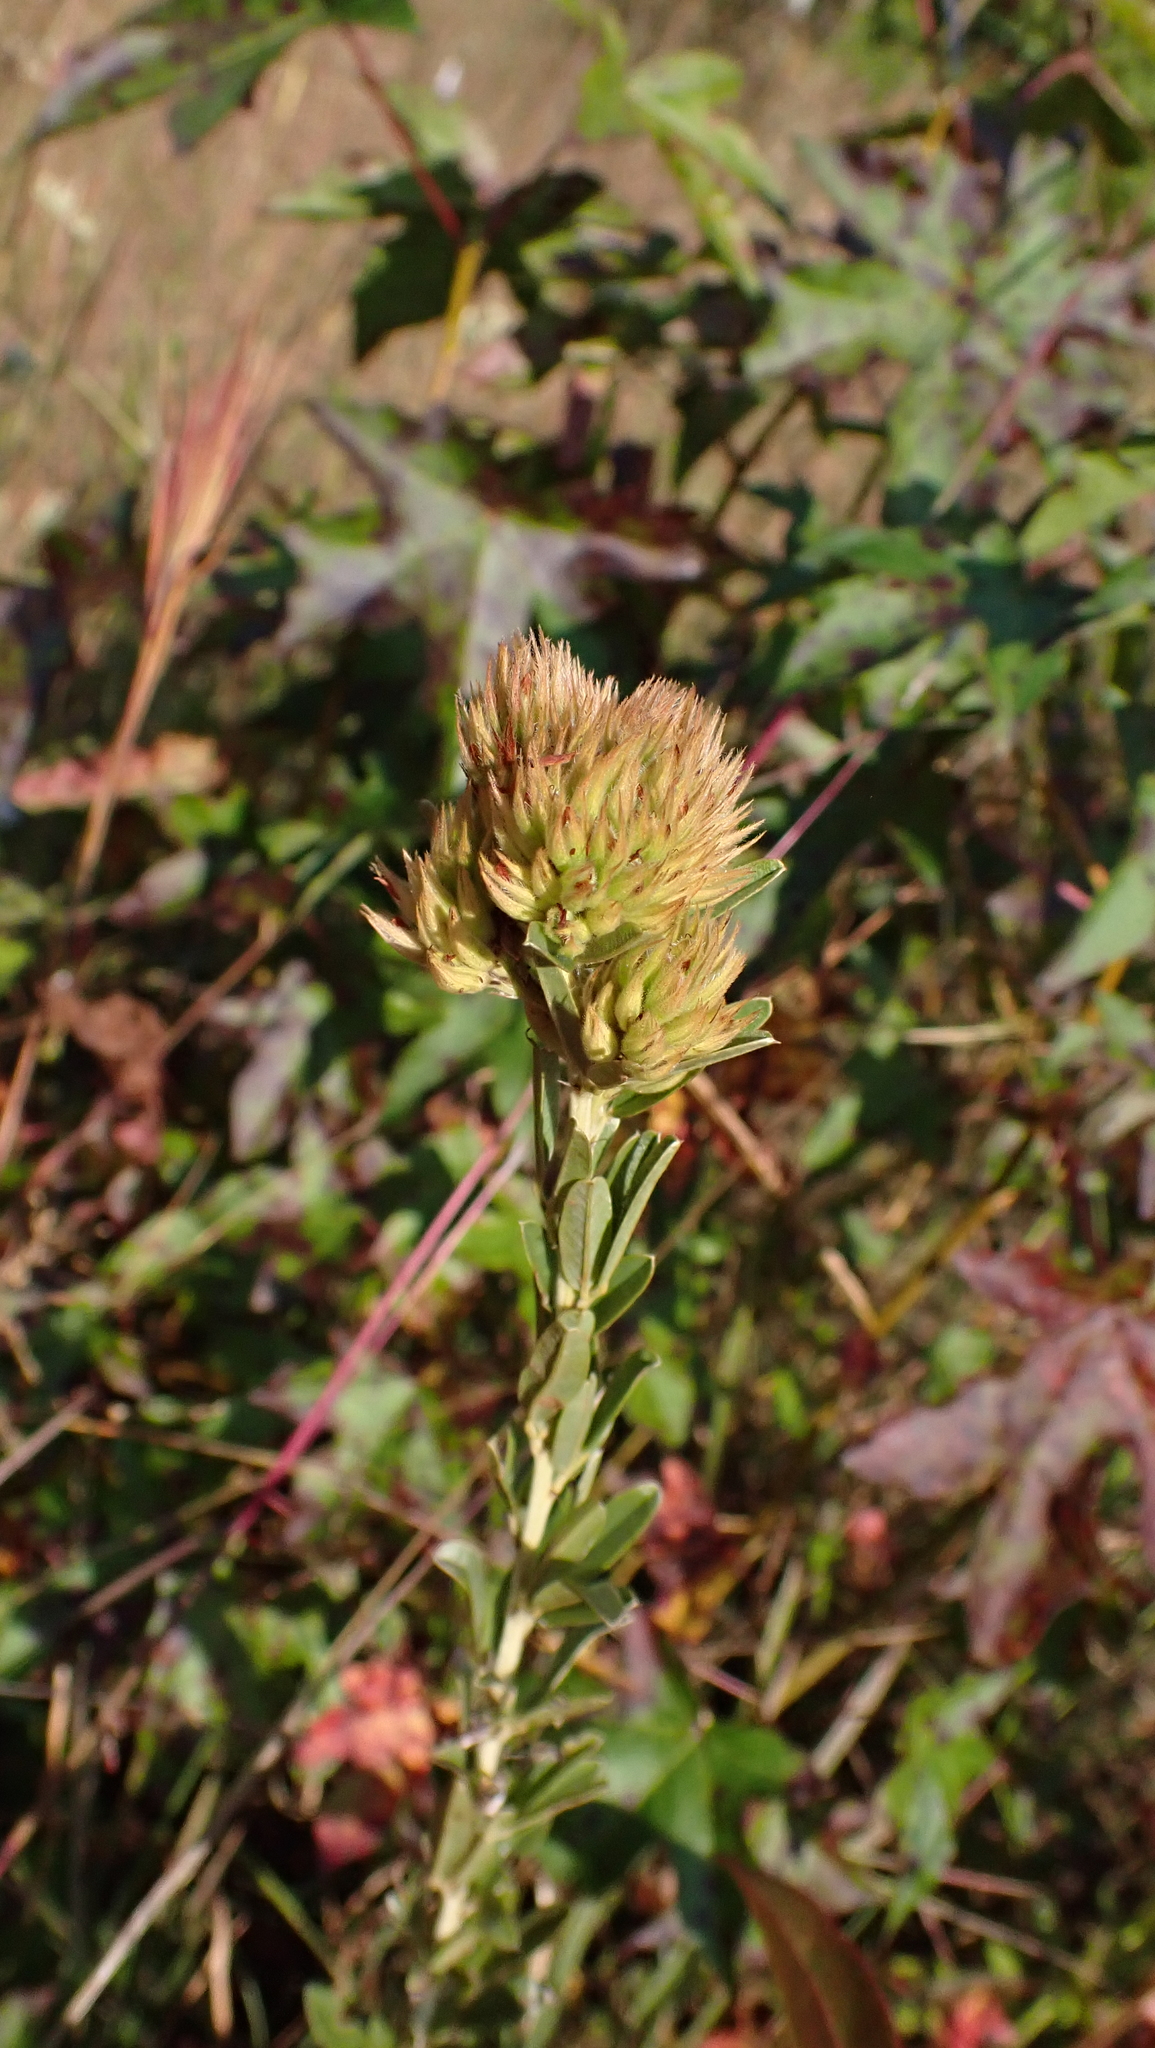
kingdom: Plantae
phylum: Tracheophyta
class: Magnoliopsida
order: Fabales
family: Fabaceae
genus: Lespedeza
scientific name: Lespedeza capitata
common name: Dusty clover
